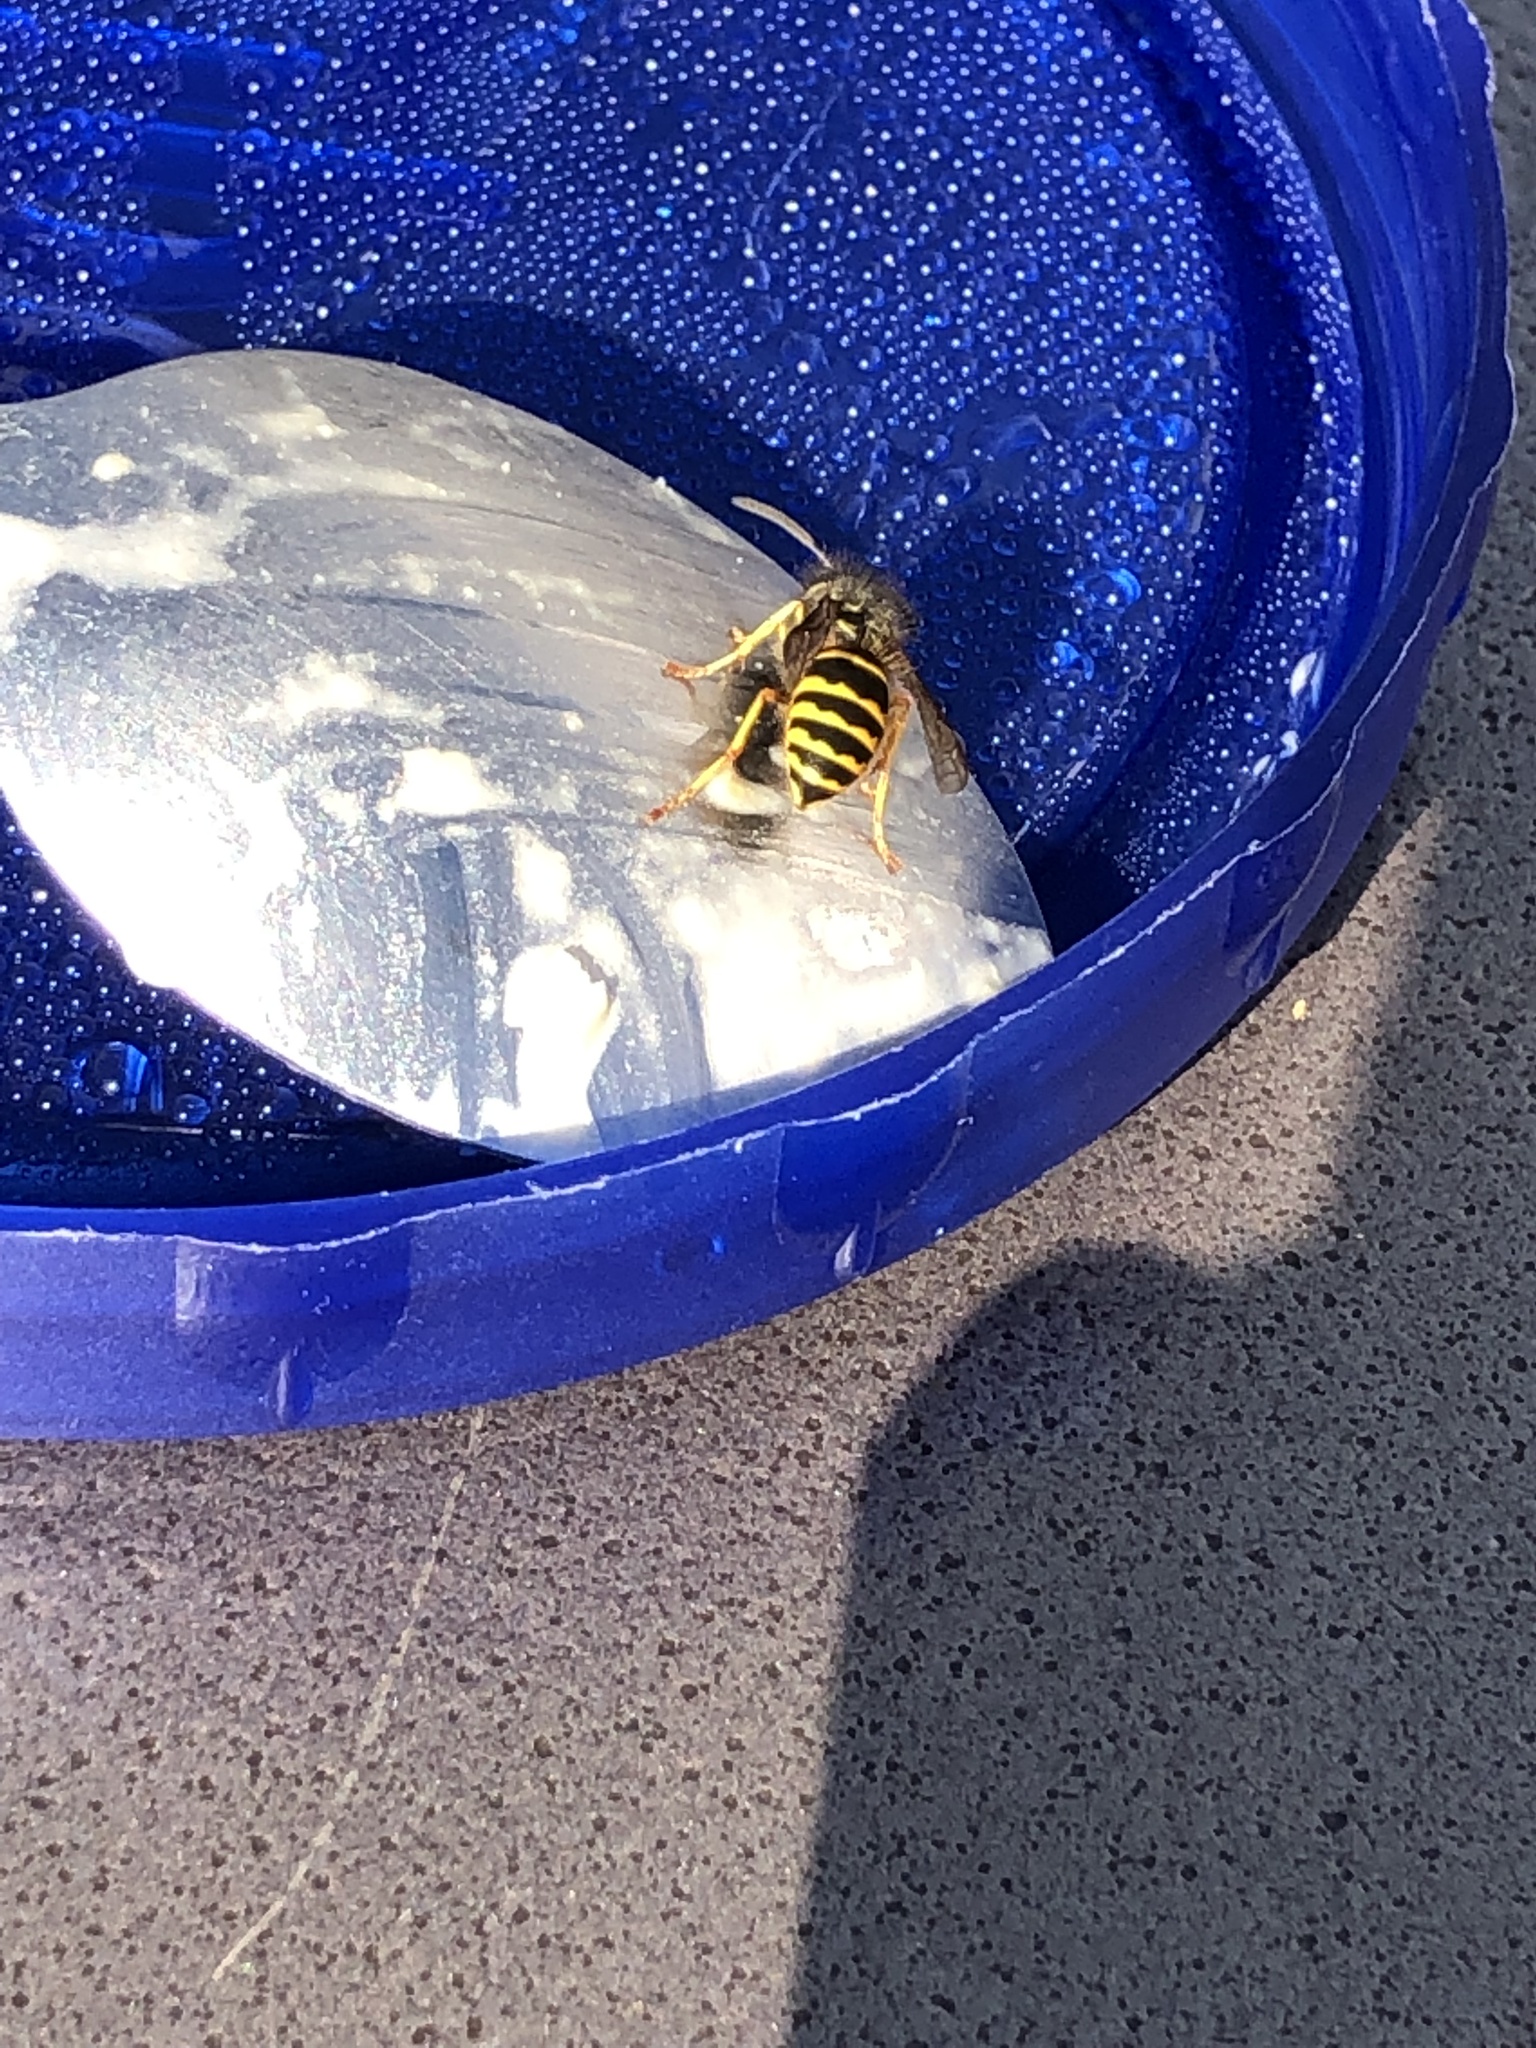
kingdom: Animalia
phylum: Arthropoda
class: Insecta
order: Hymenoptera
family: Vespidae
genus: Vespula
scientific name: Vespula alascensis
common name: Alaska yellowjacket
